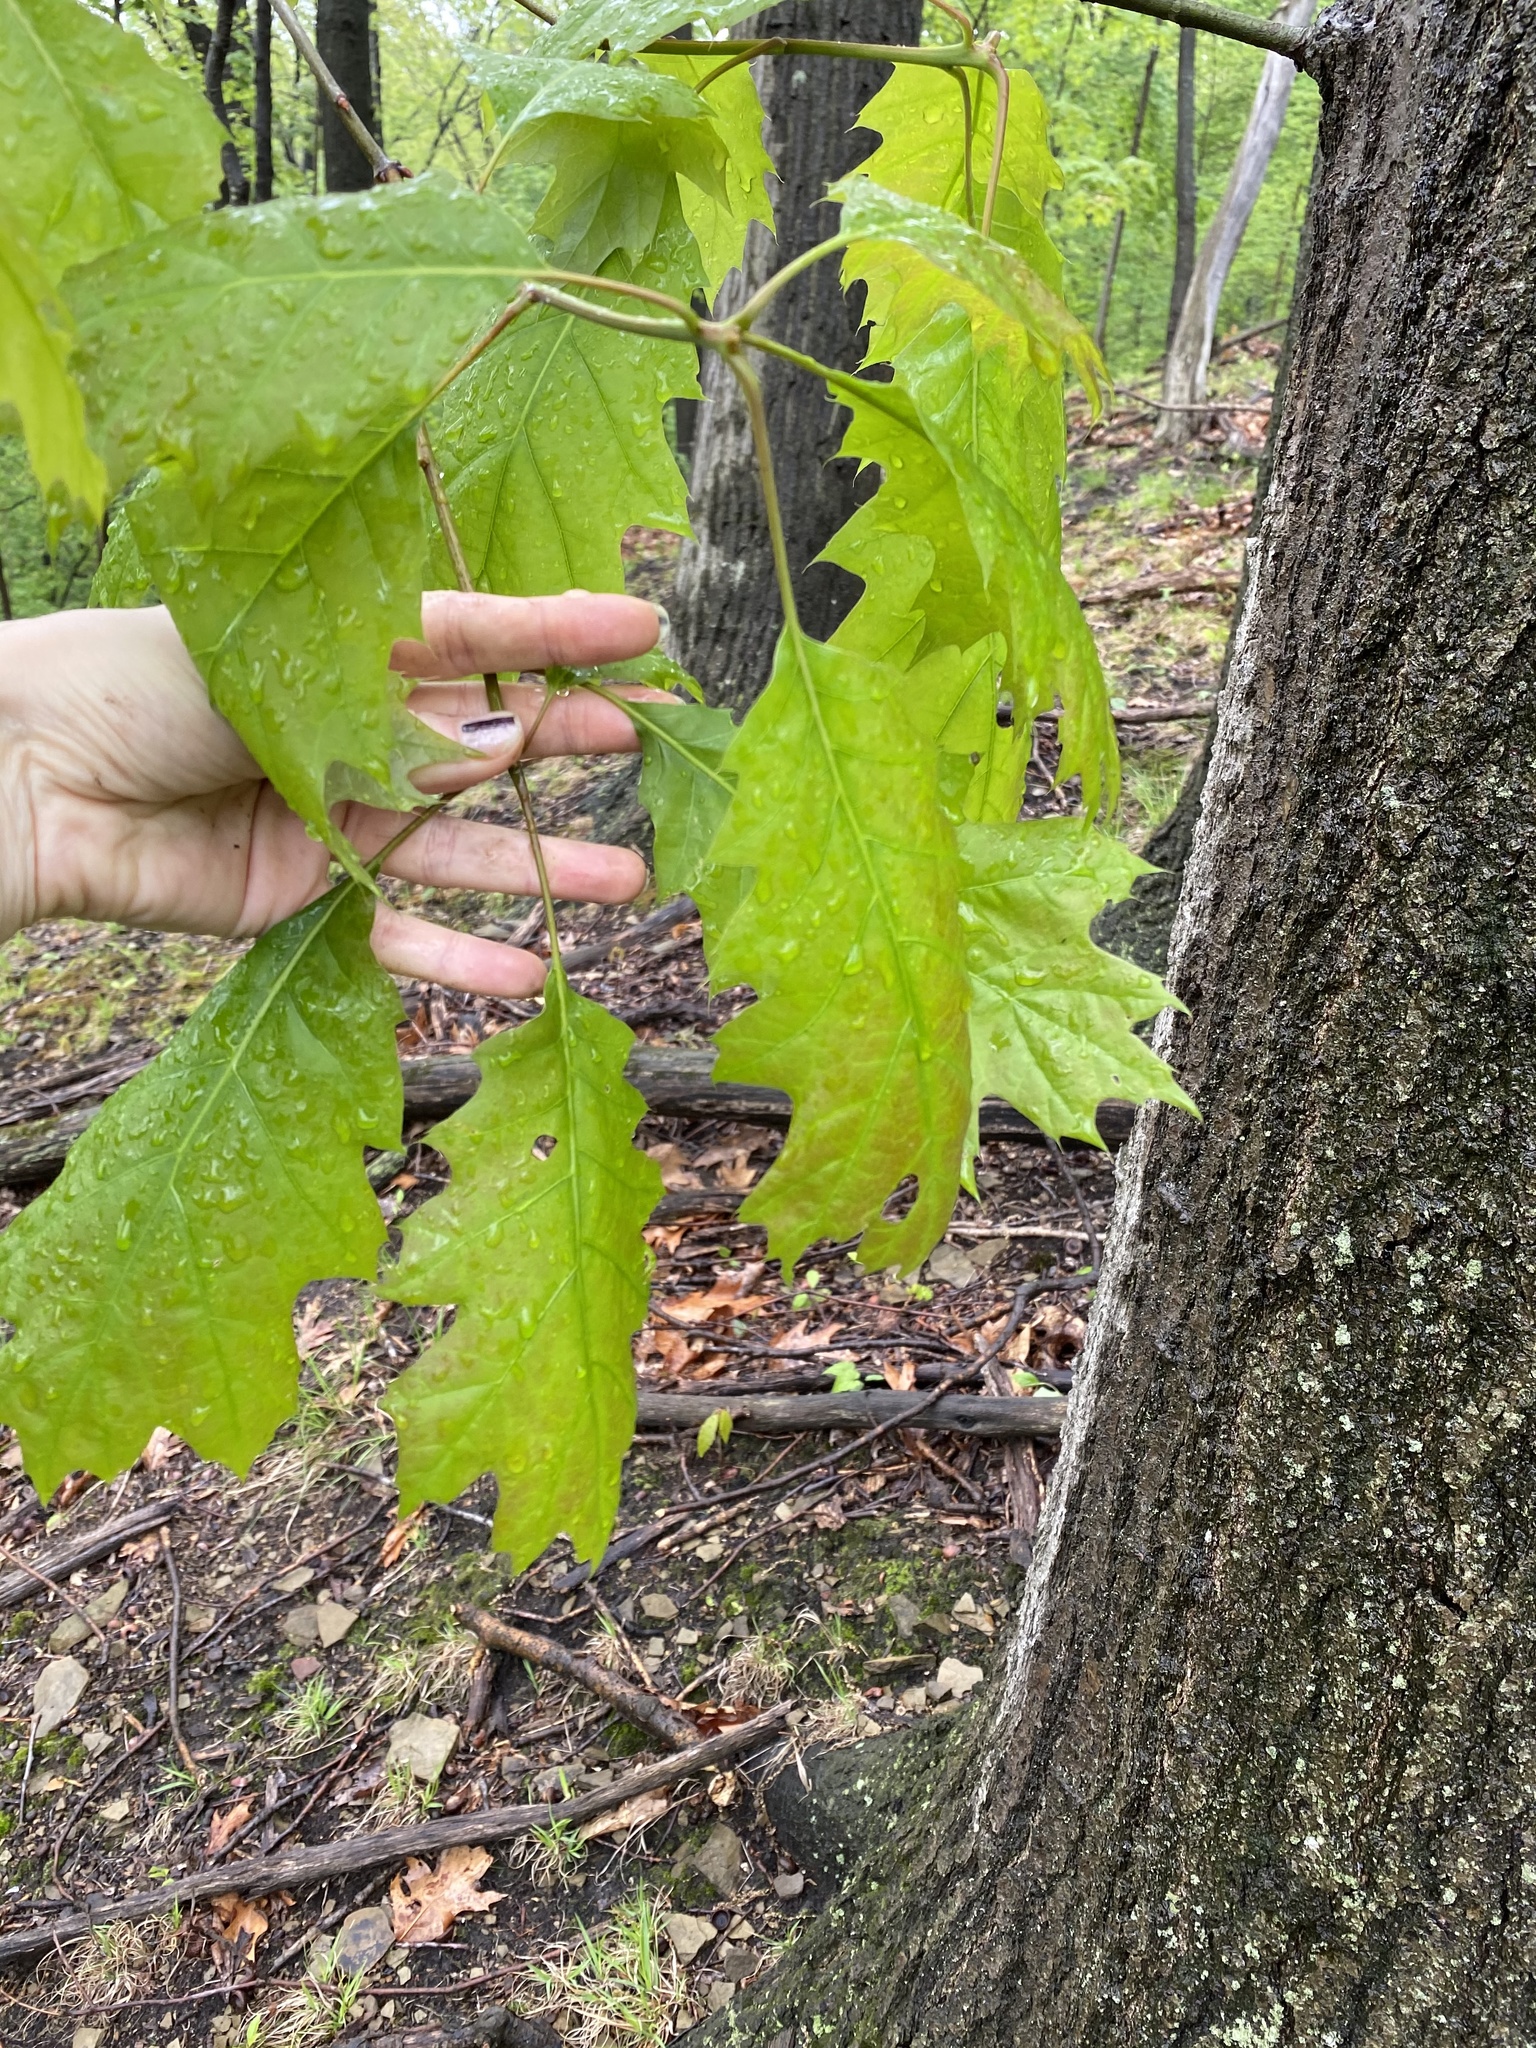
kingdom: Plantae
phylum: Tracheophyta
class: Magnoliopsida
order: Fagales
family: Fagaceae
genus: Quercus
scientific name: Quercus velutina
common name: Black oak
